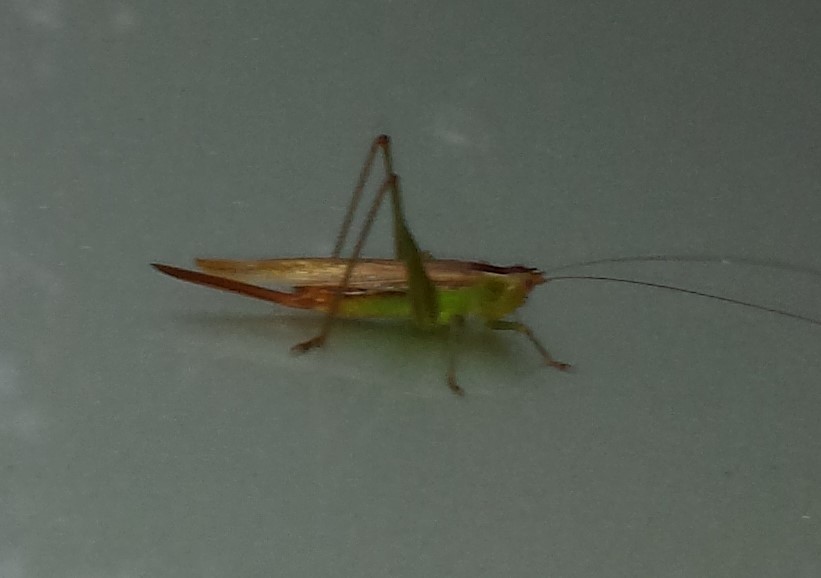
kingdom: Animalia
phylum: Arthropoda
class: Insecta
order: Orthoptera
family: Tettigoniidae
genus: Conocephalus
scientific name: Conocephalus brevipennis
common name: Short-winged meadow katydid
